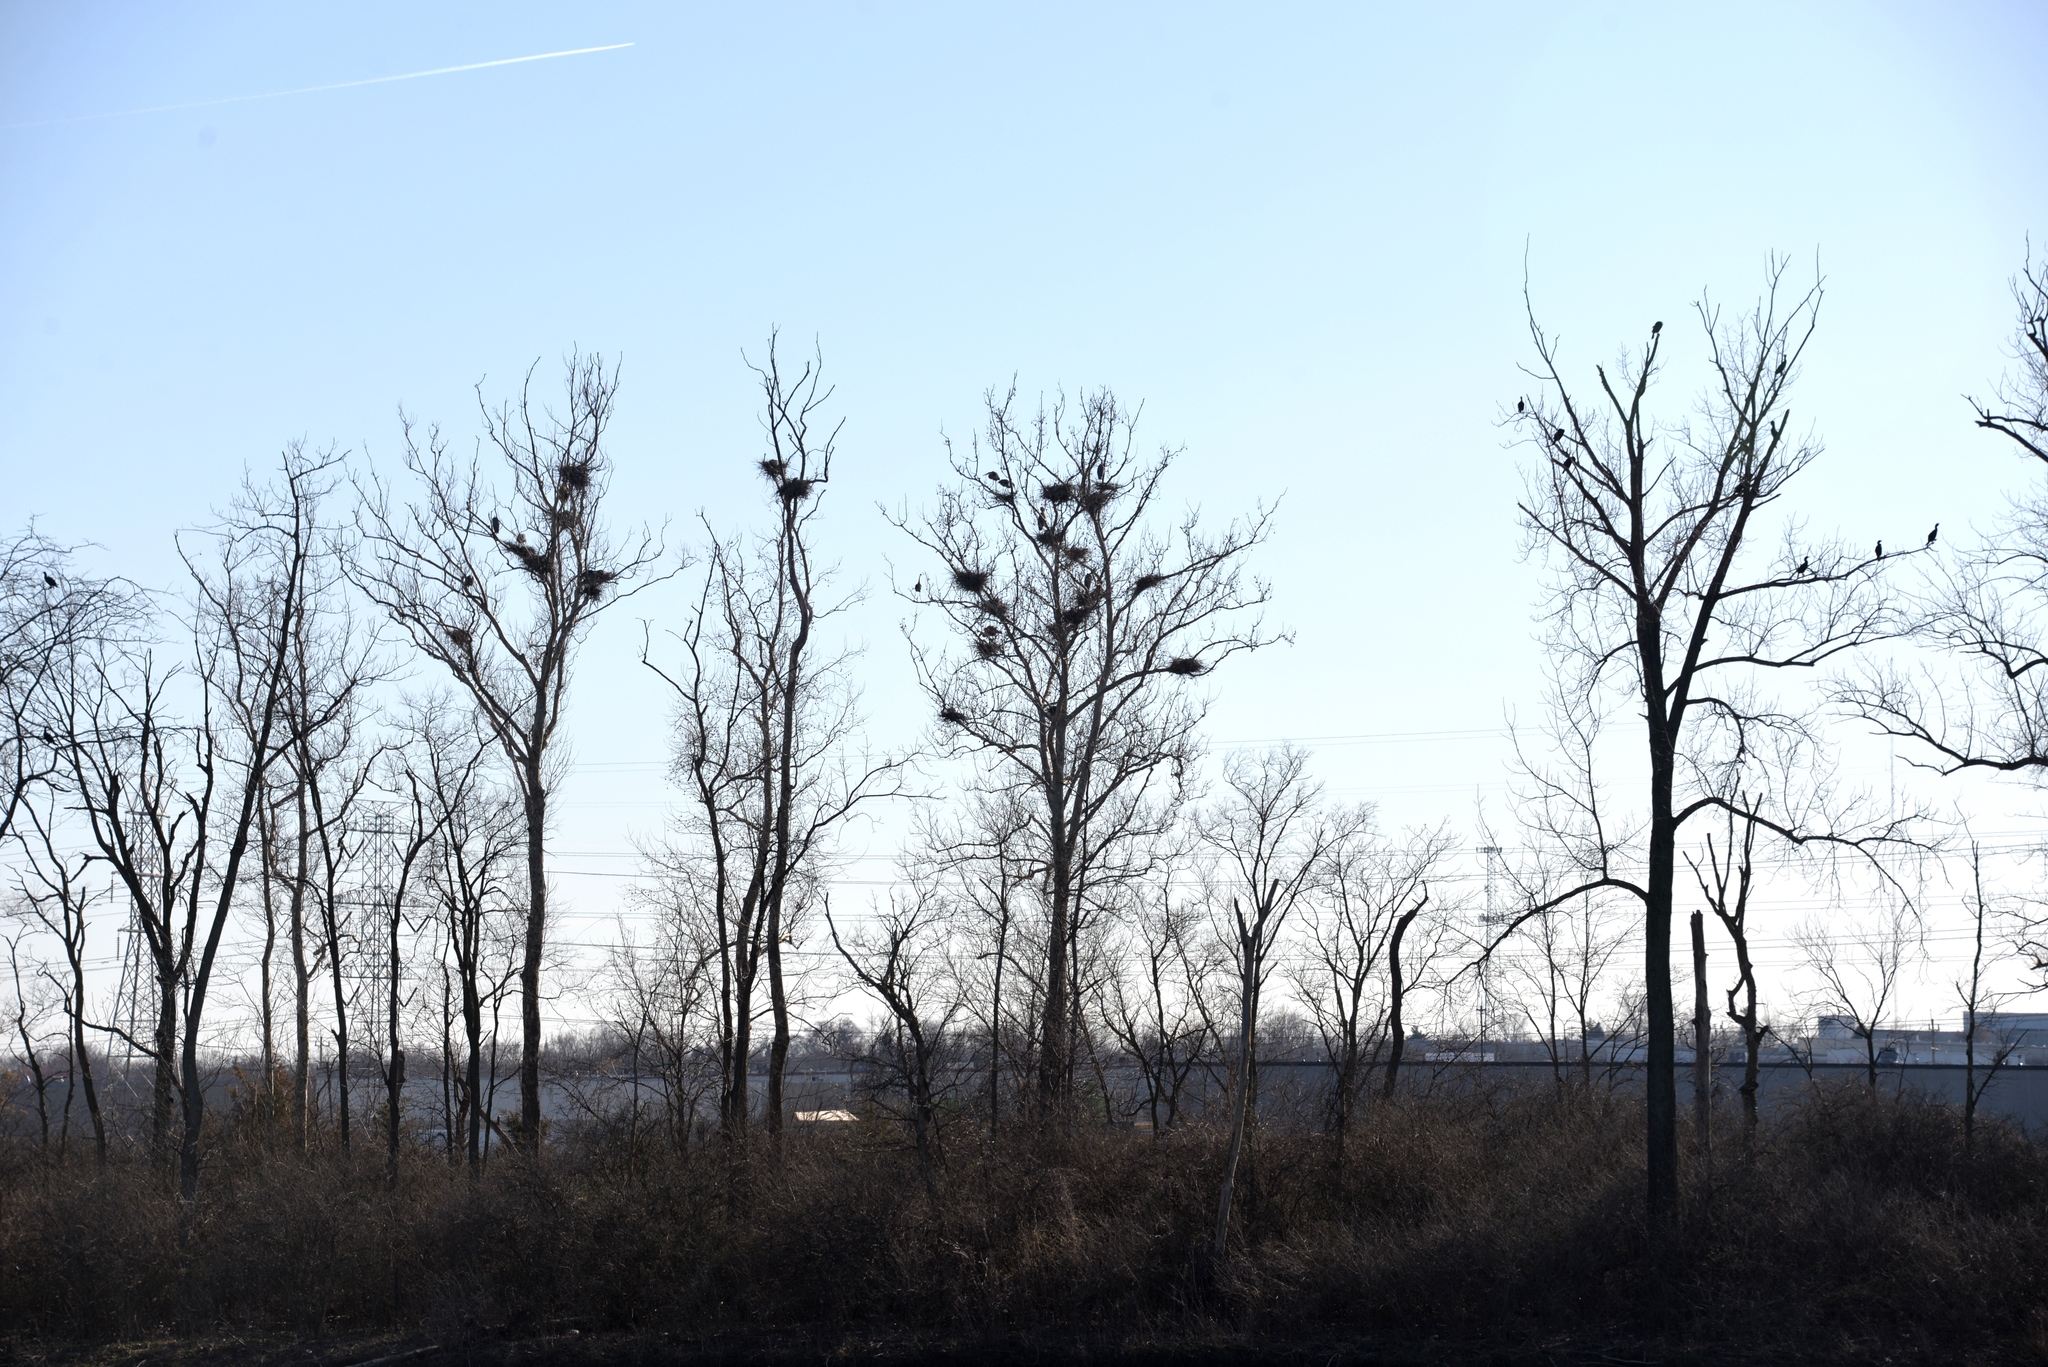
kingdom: Animalia
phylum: Chordata
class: Aves
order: Pelecaniformes
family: Ardeidae
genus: Ardea
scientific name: Ardea herodias
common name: Great blue heron
